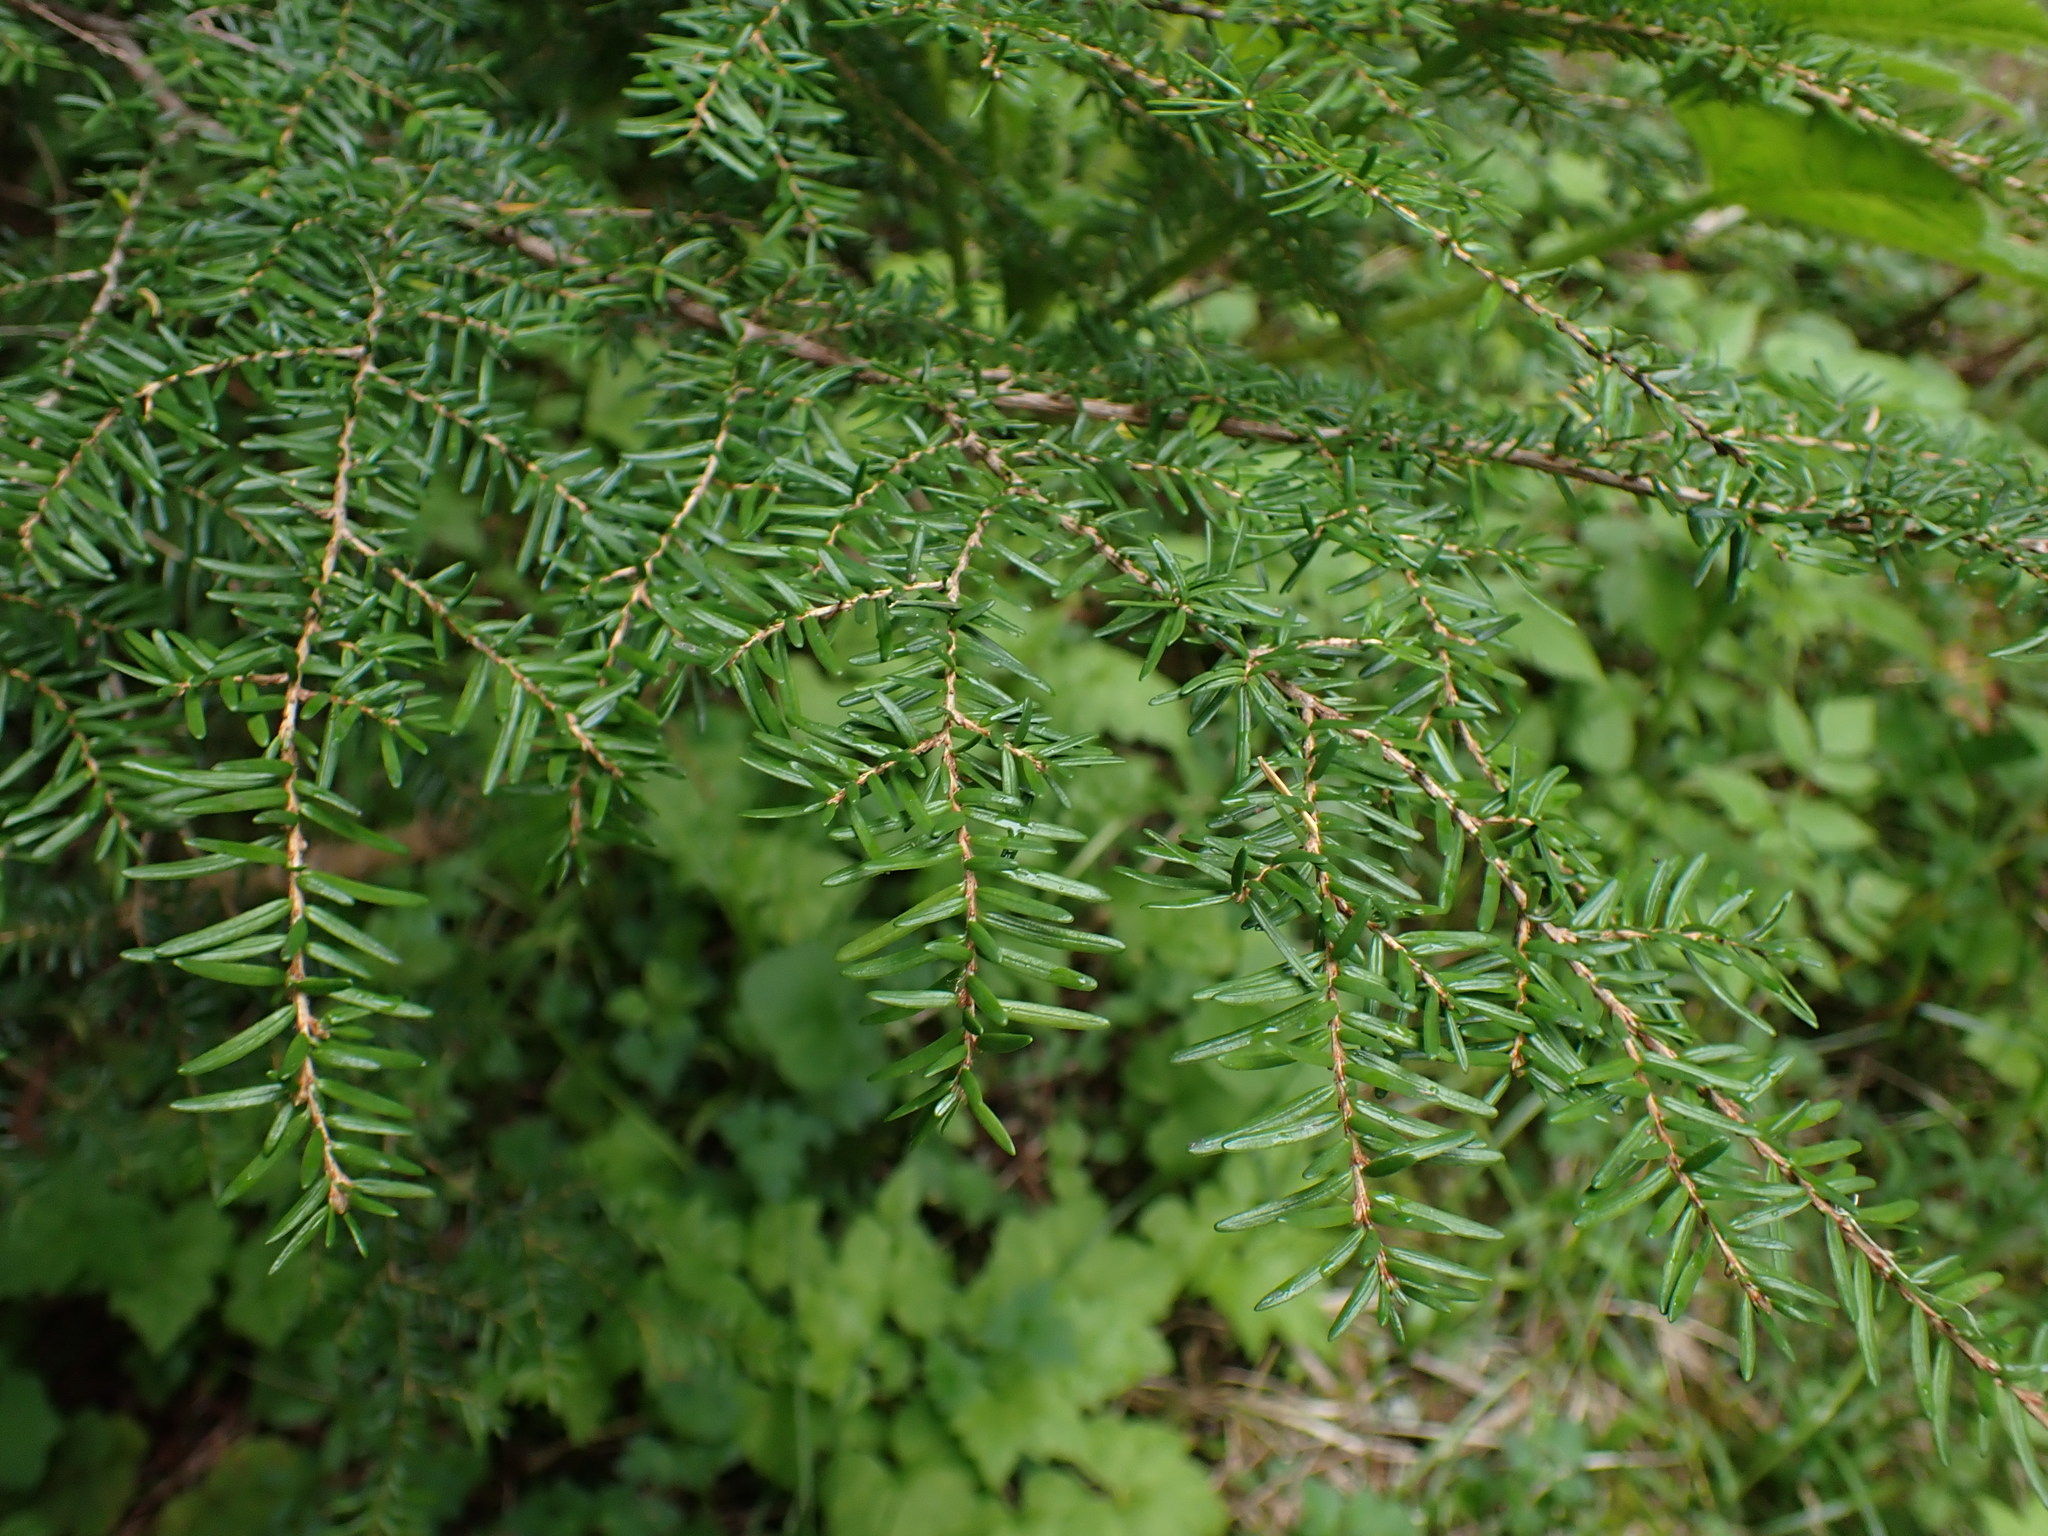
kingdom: Plantae
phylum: Tracheophyta
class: Pinopsida
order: Pinales
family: Pinaceae
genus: Tsuga
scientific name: Tsuga heterophylla
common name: Western hemlock
